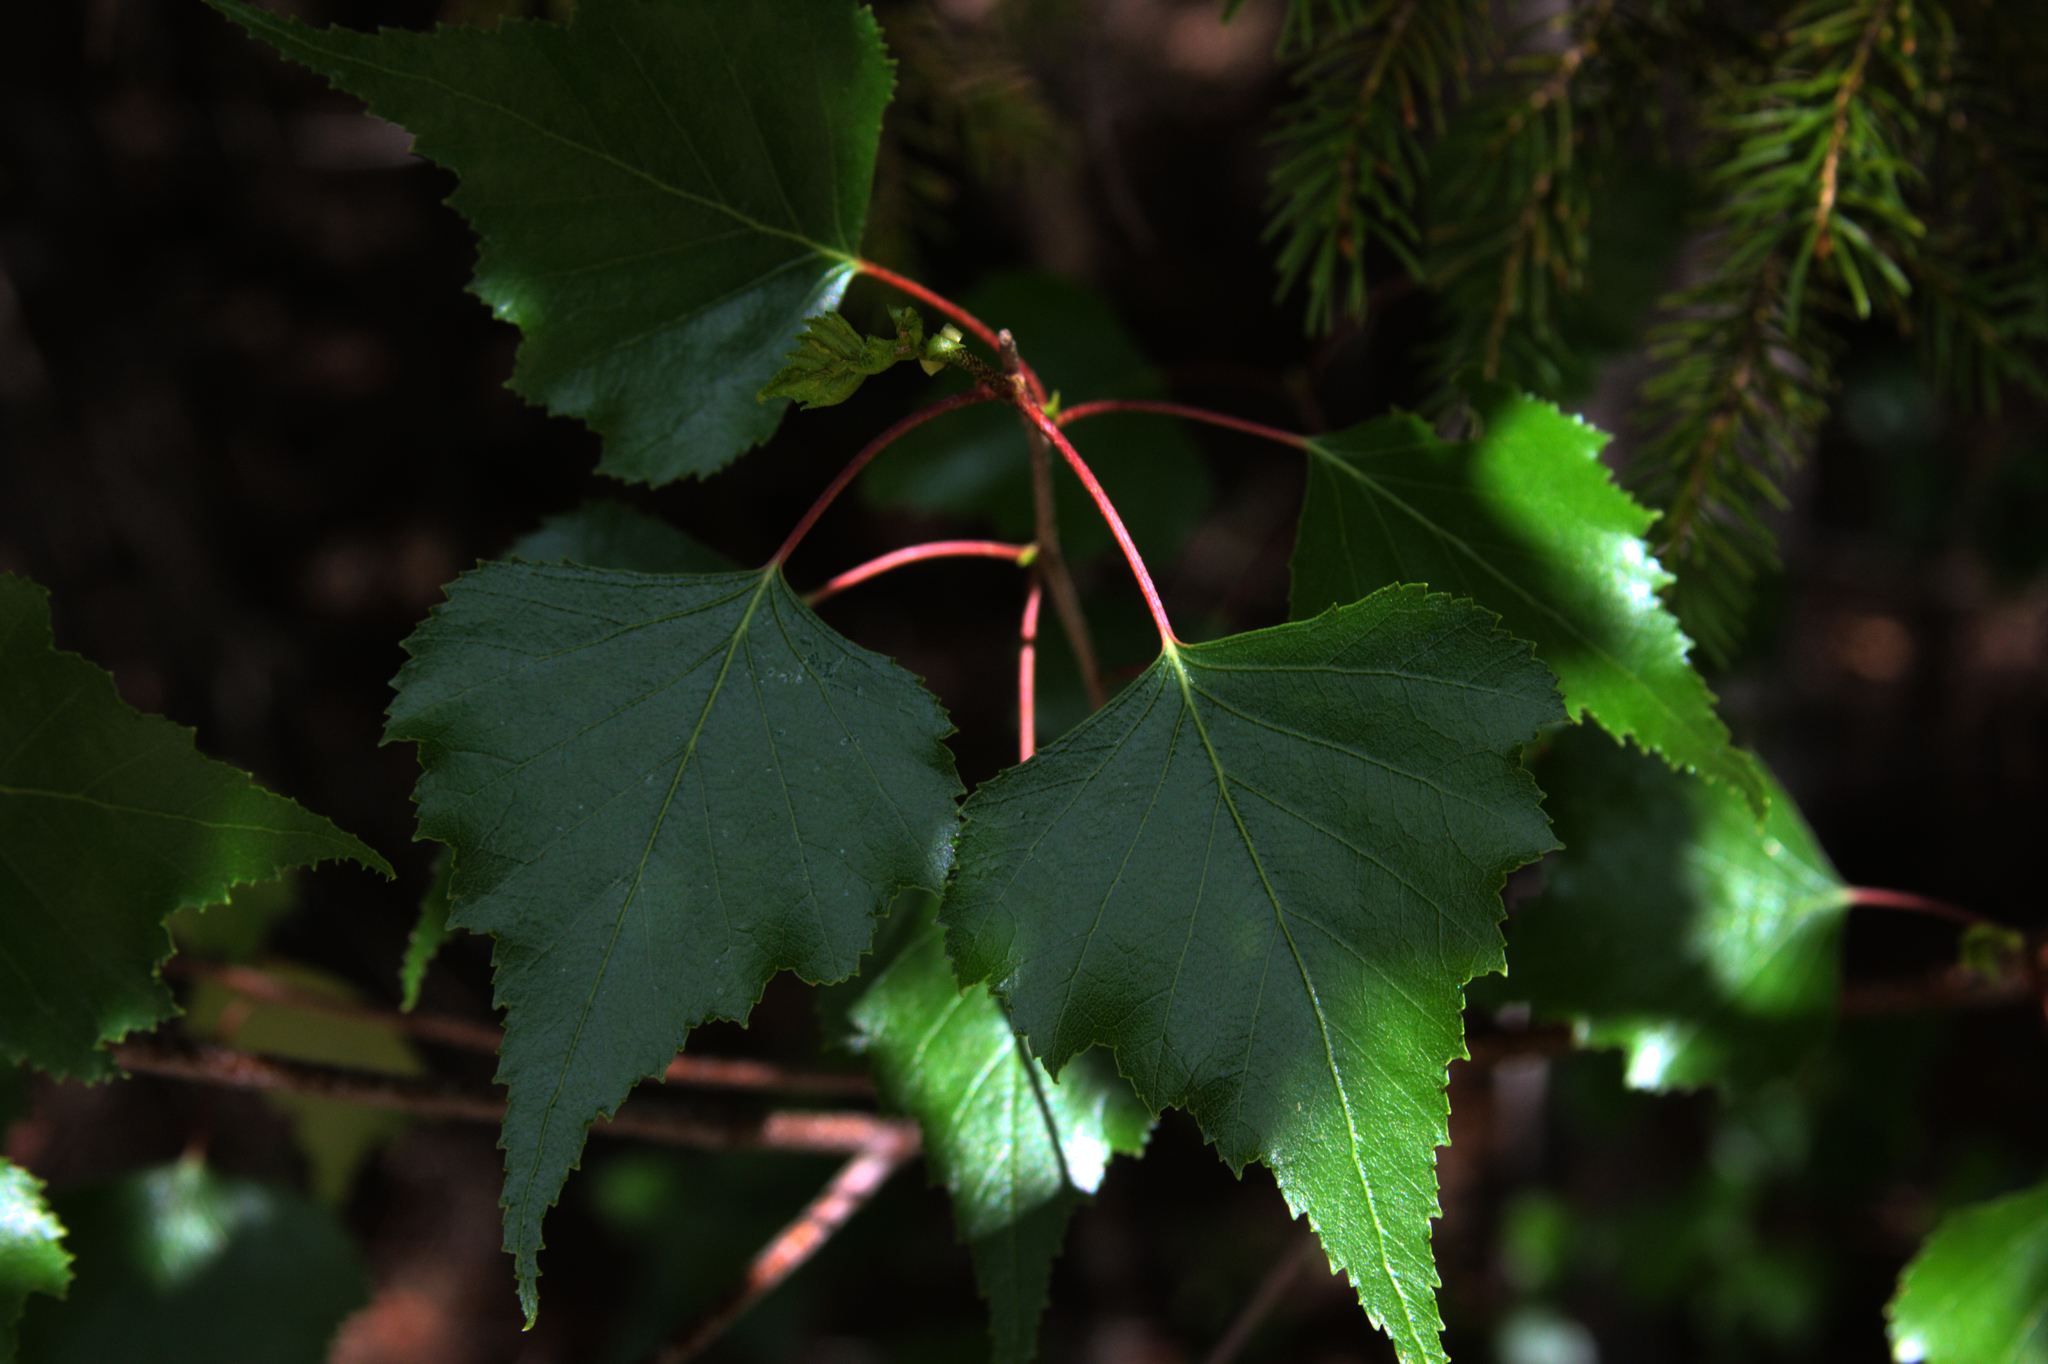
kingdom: Plantae
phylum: Tracheophyta
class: Magnoliopsida
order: Fagales
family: Betulaceae
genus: Betula
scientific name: Betula populifolia
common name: Fire birch
